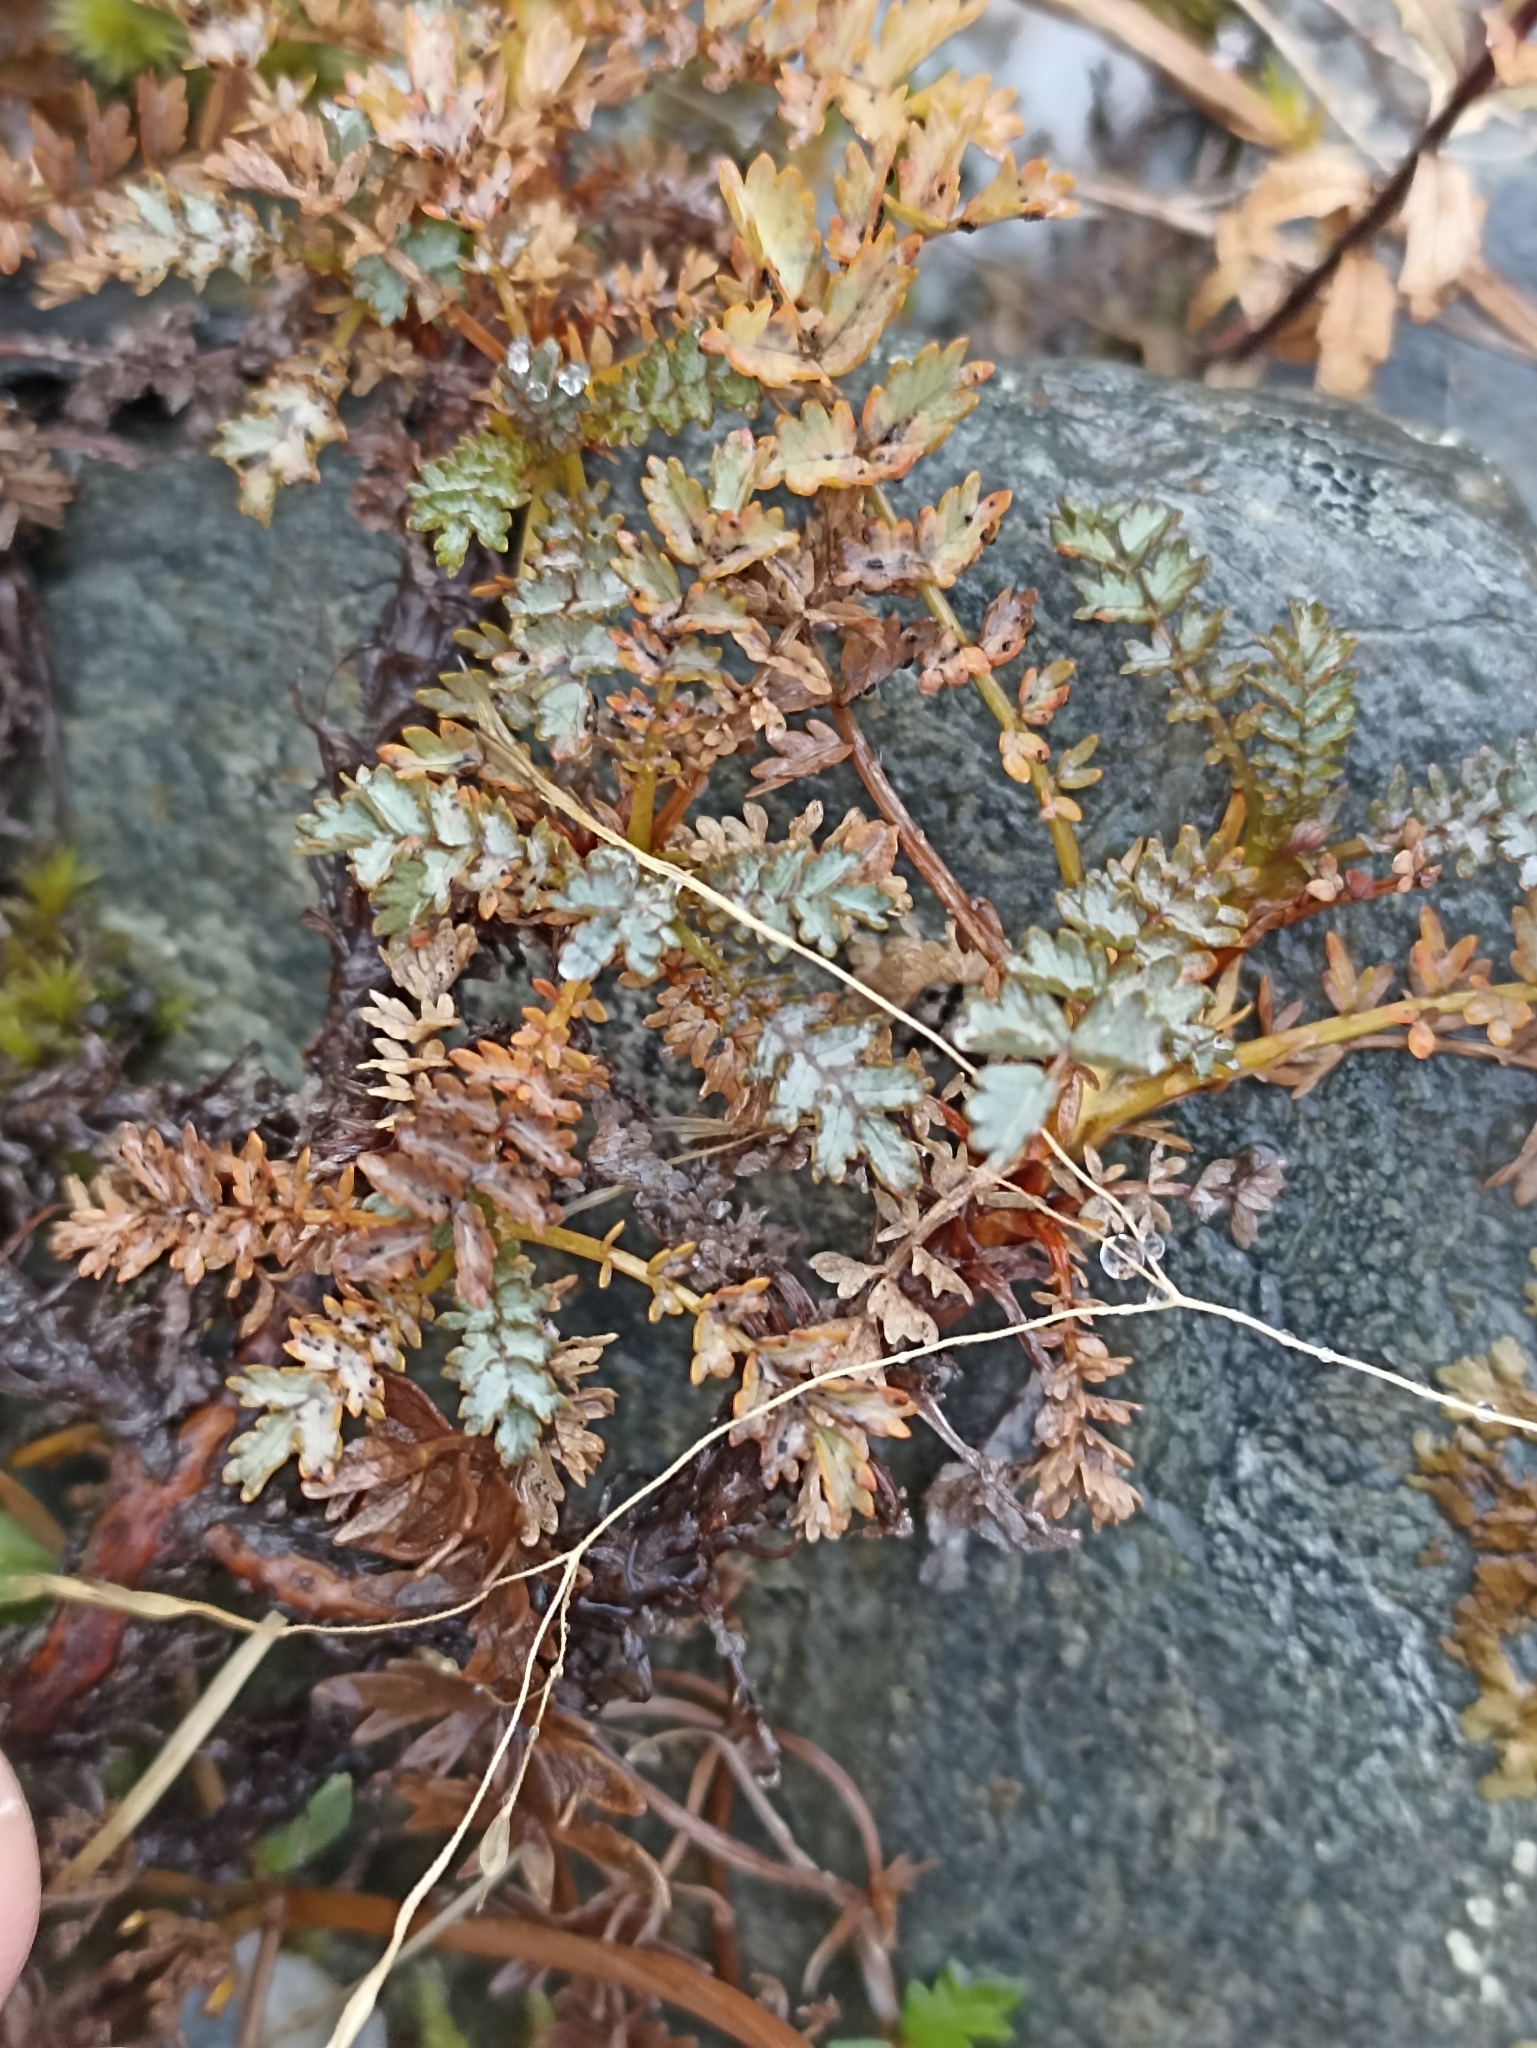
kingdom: Plantae
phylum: Tracheophyta
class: Magnoliopsida
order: Rosales
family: Rosaceae
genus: Acaena
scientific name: Acaena saccaticupula
